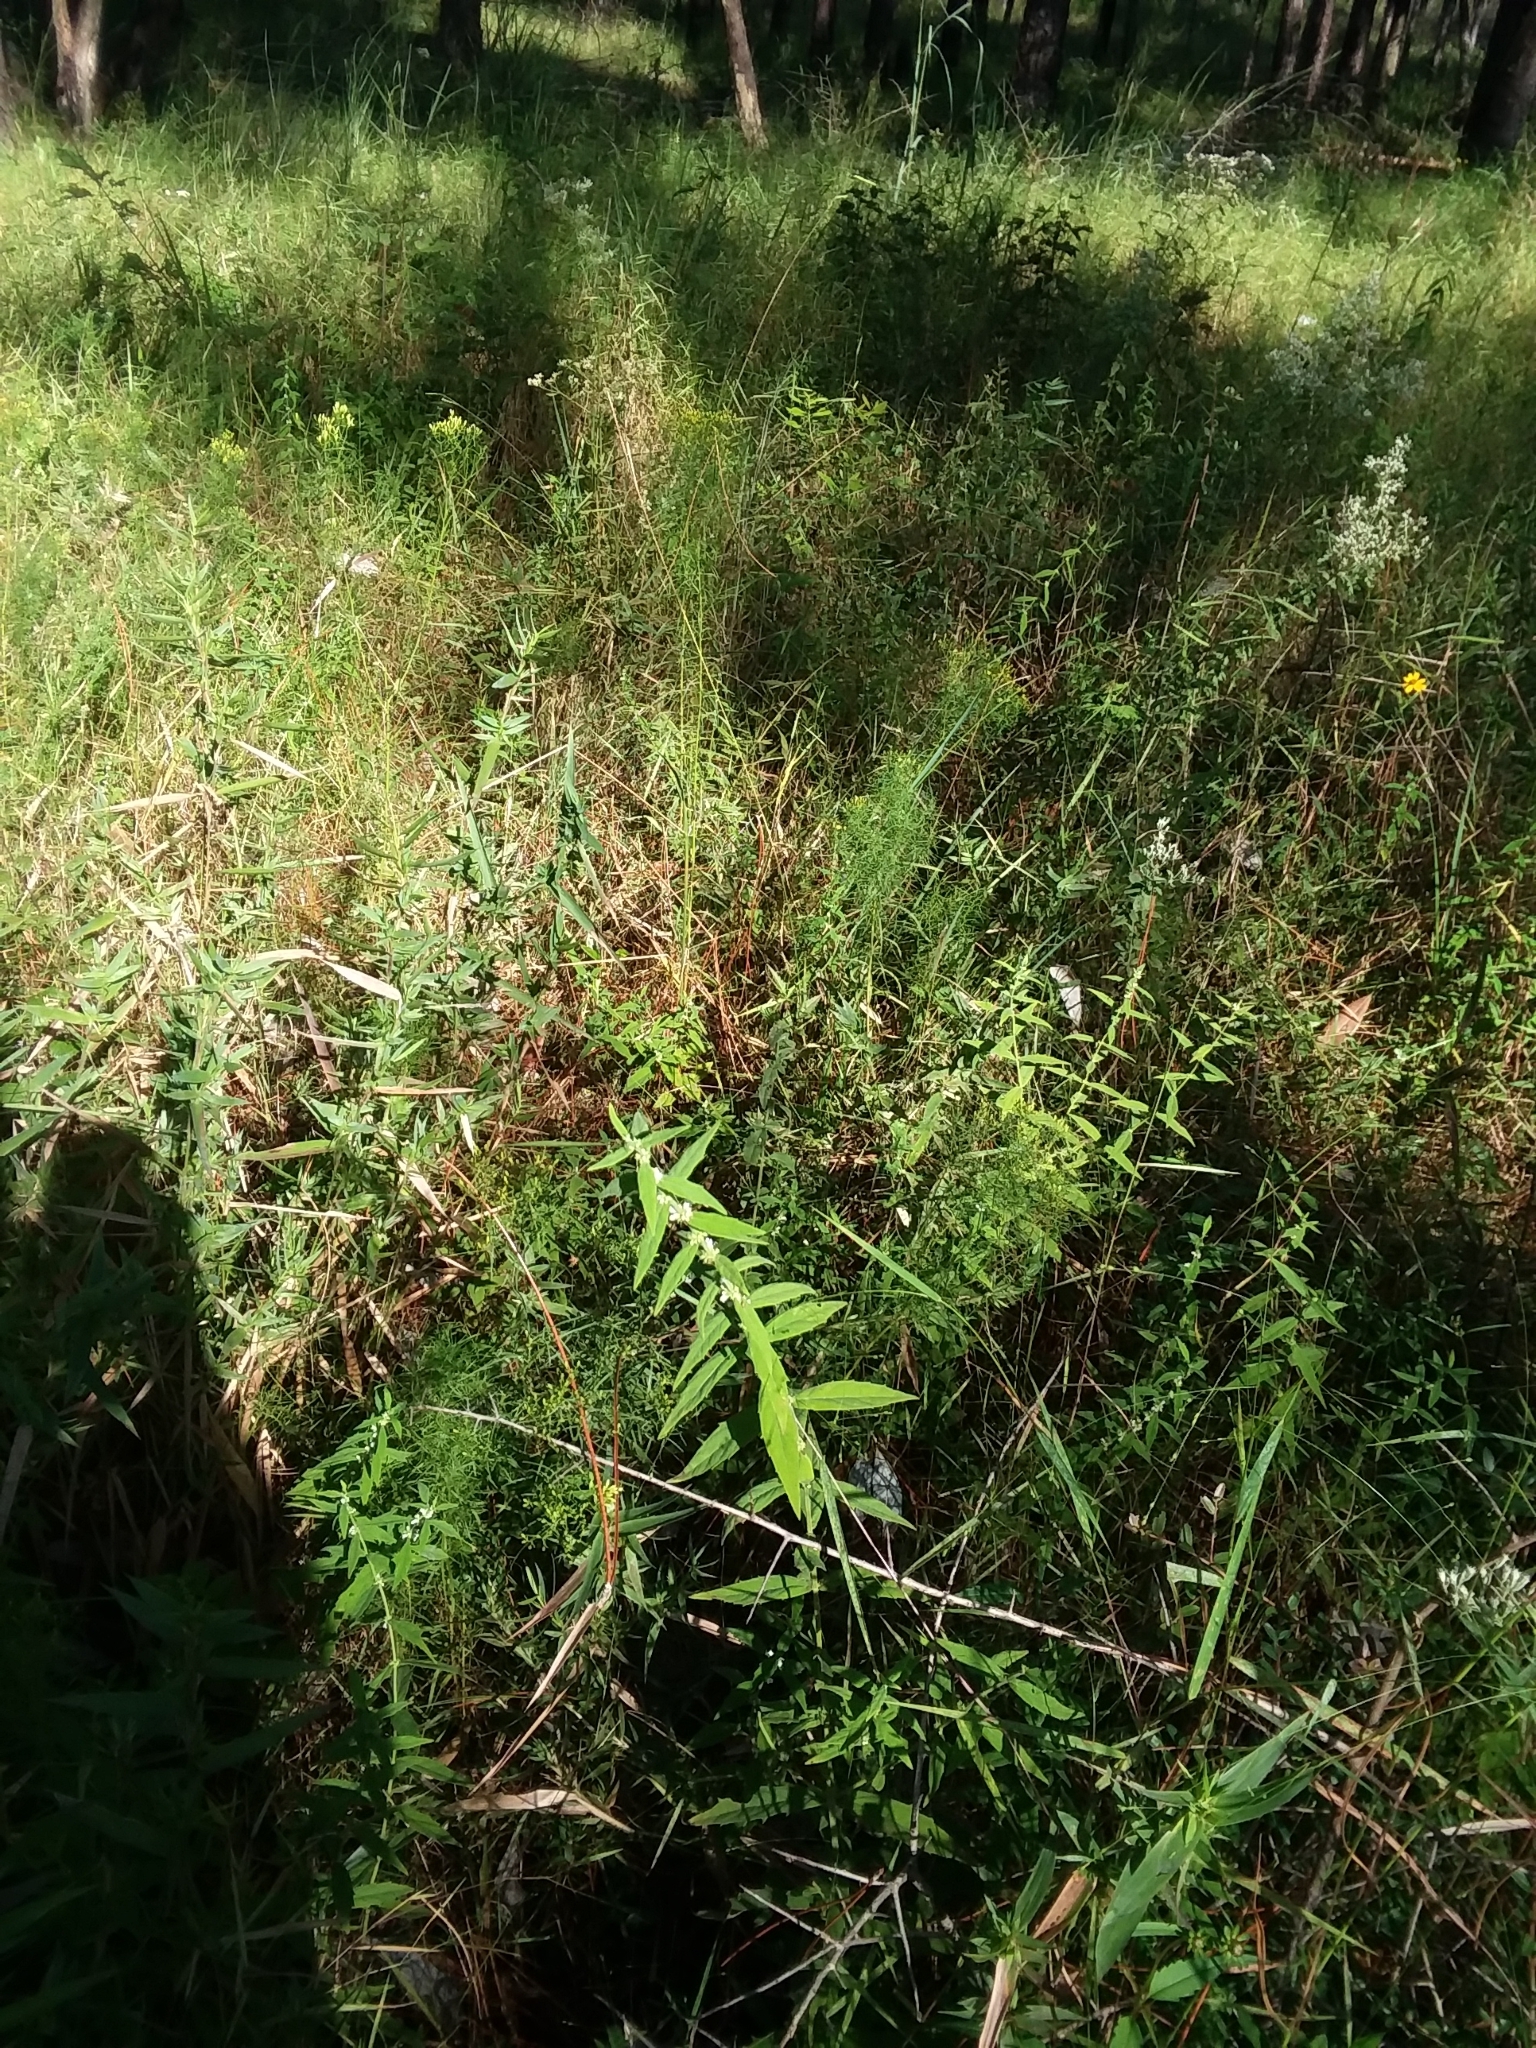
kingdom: Plantae
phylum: Tracheophyta
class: Magnoliopsida
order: Lamiales
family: Lamiaceae
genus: Lycopus
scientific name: Lycopus amplectens
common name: Clasping water horehound
